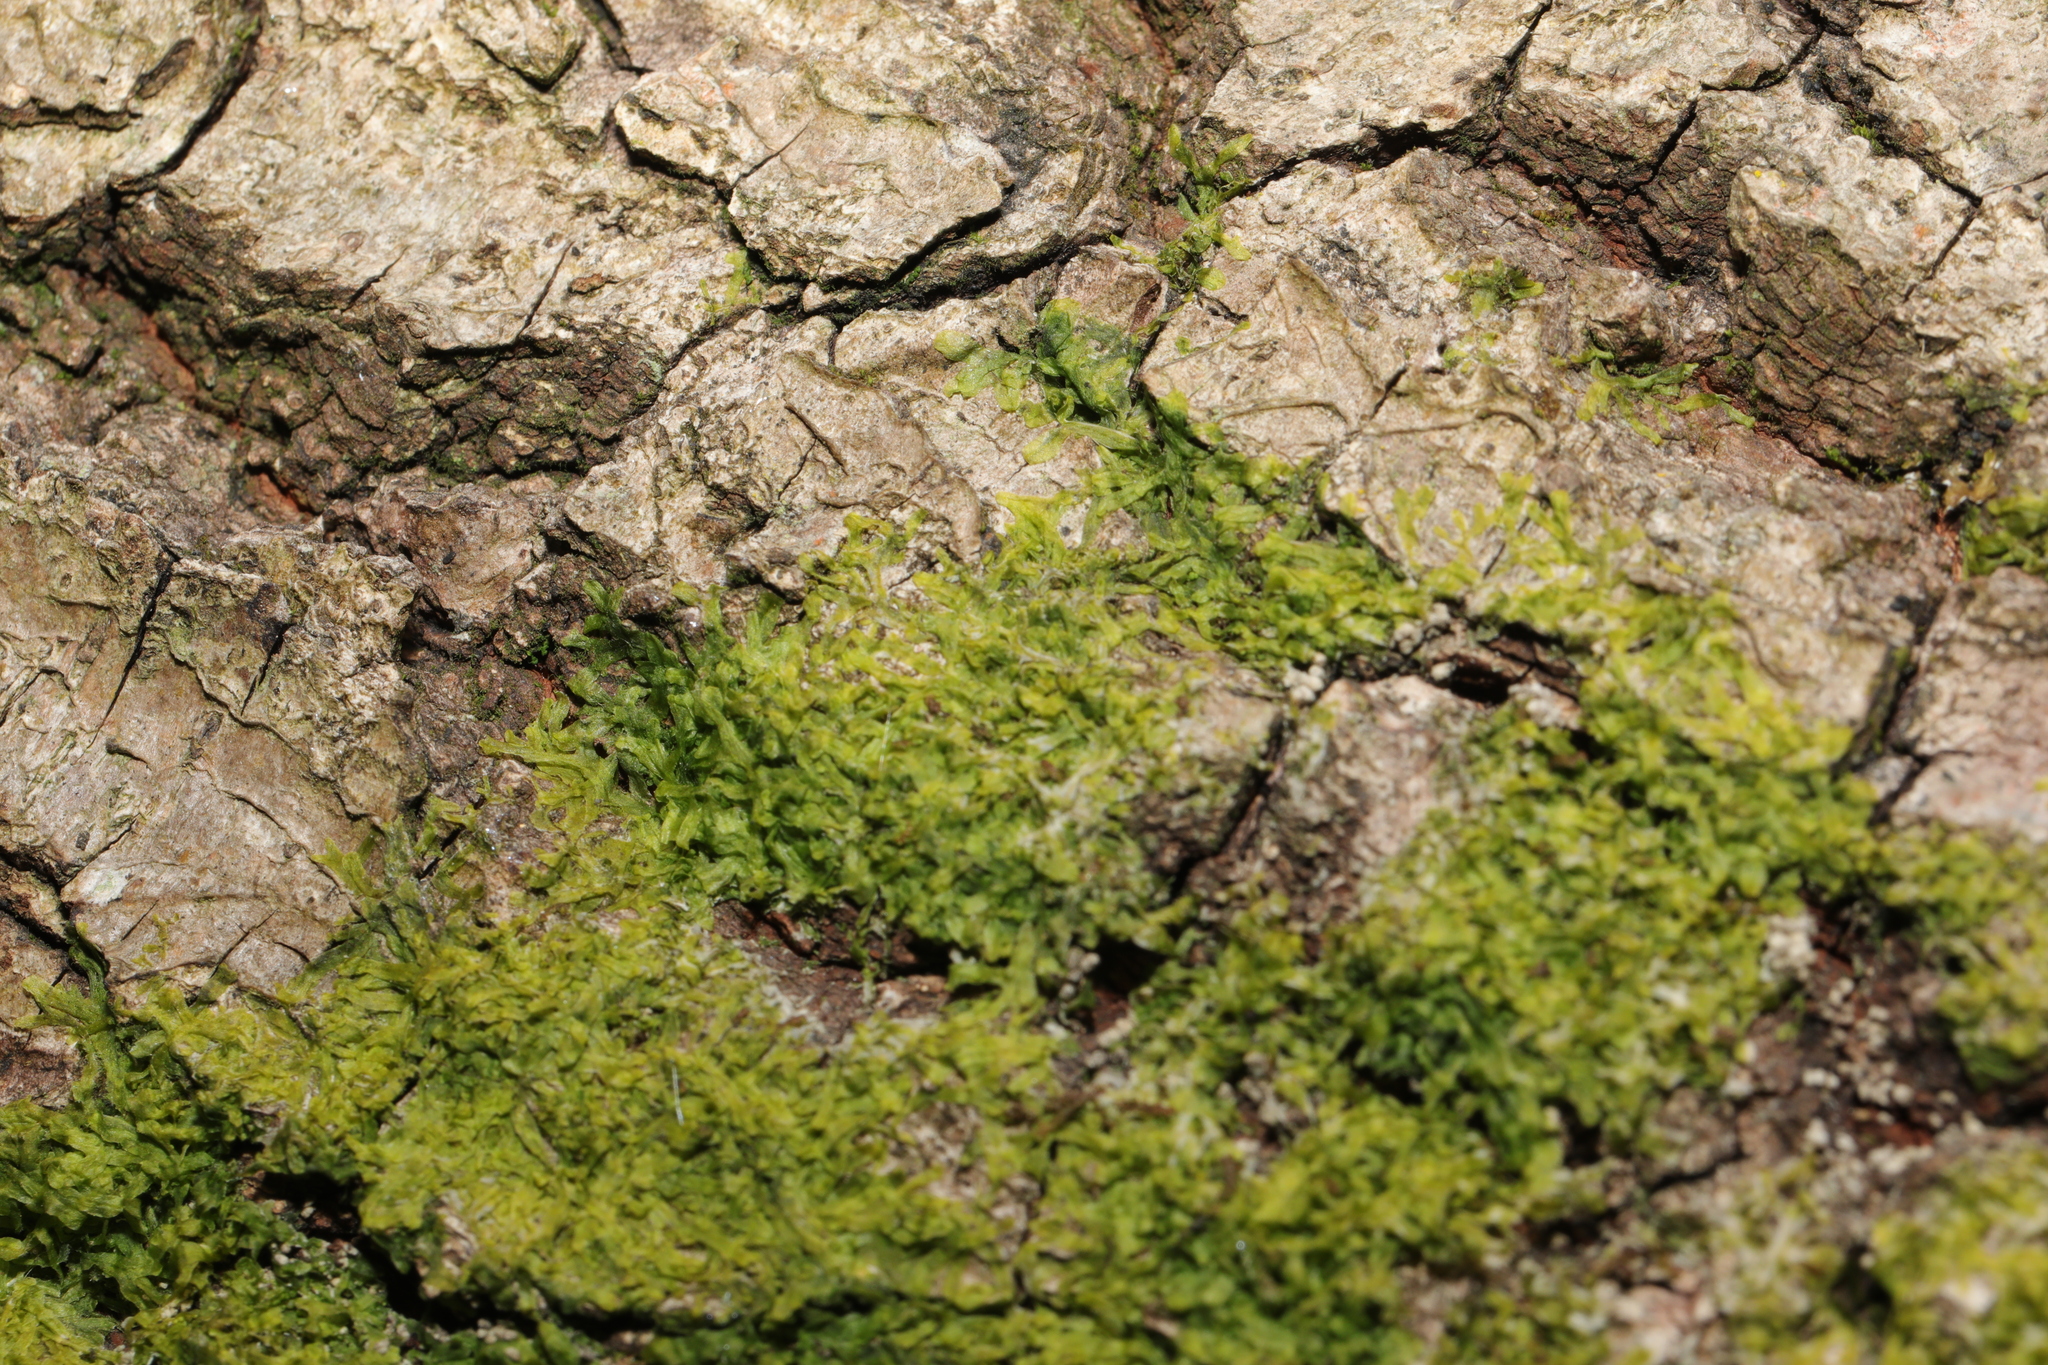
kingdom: Plantae
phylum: Marchantiophyta
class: Jungermanniopsida
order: Metzgeriales
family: Metzgeriaceae
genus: Metzgeria
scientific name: Metzgeria furcata
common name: Forked veilwort
